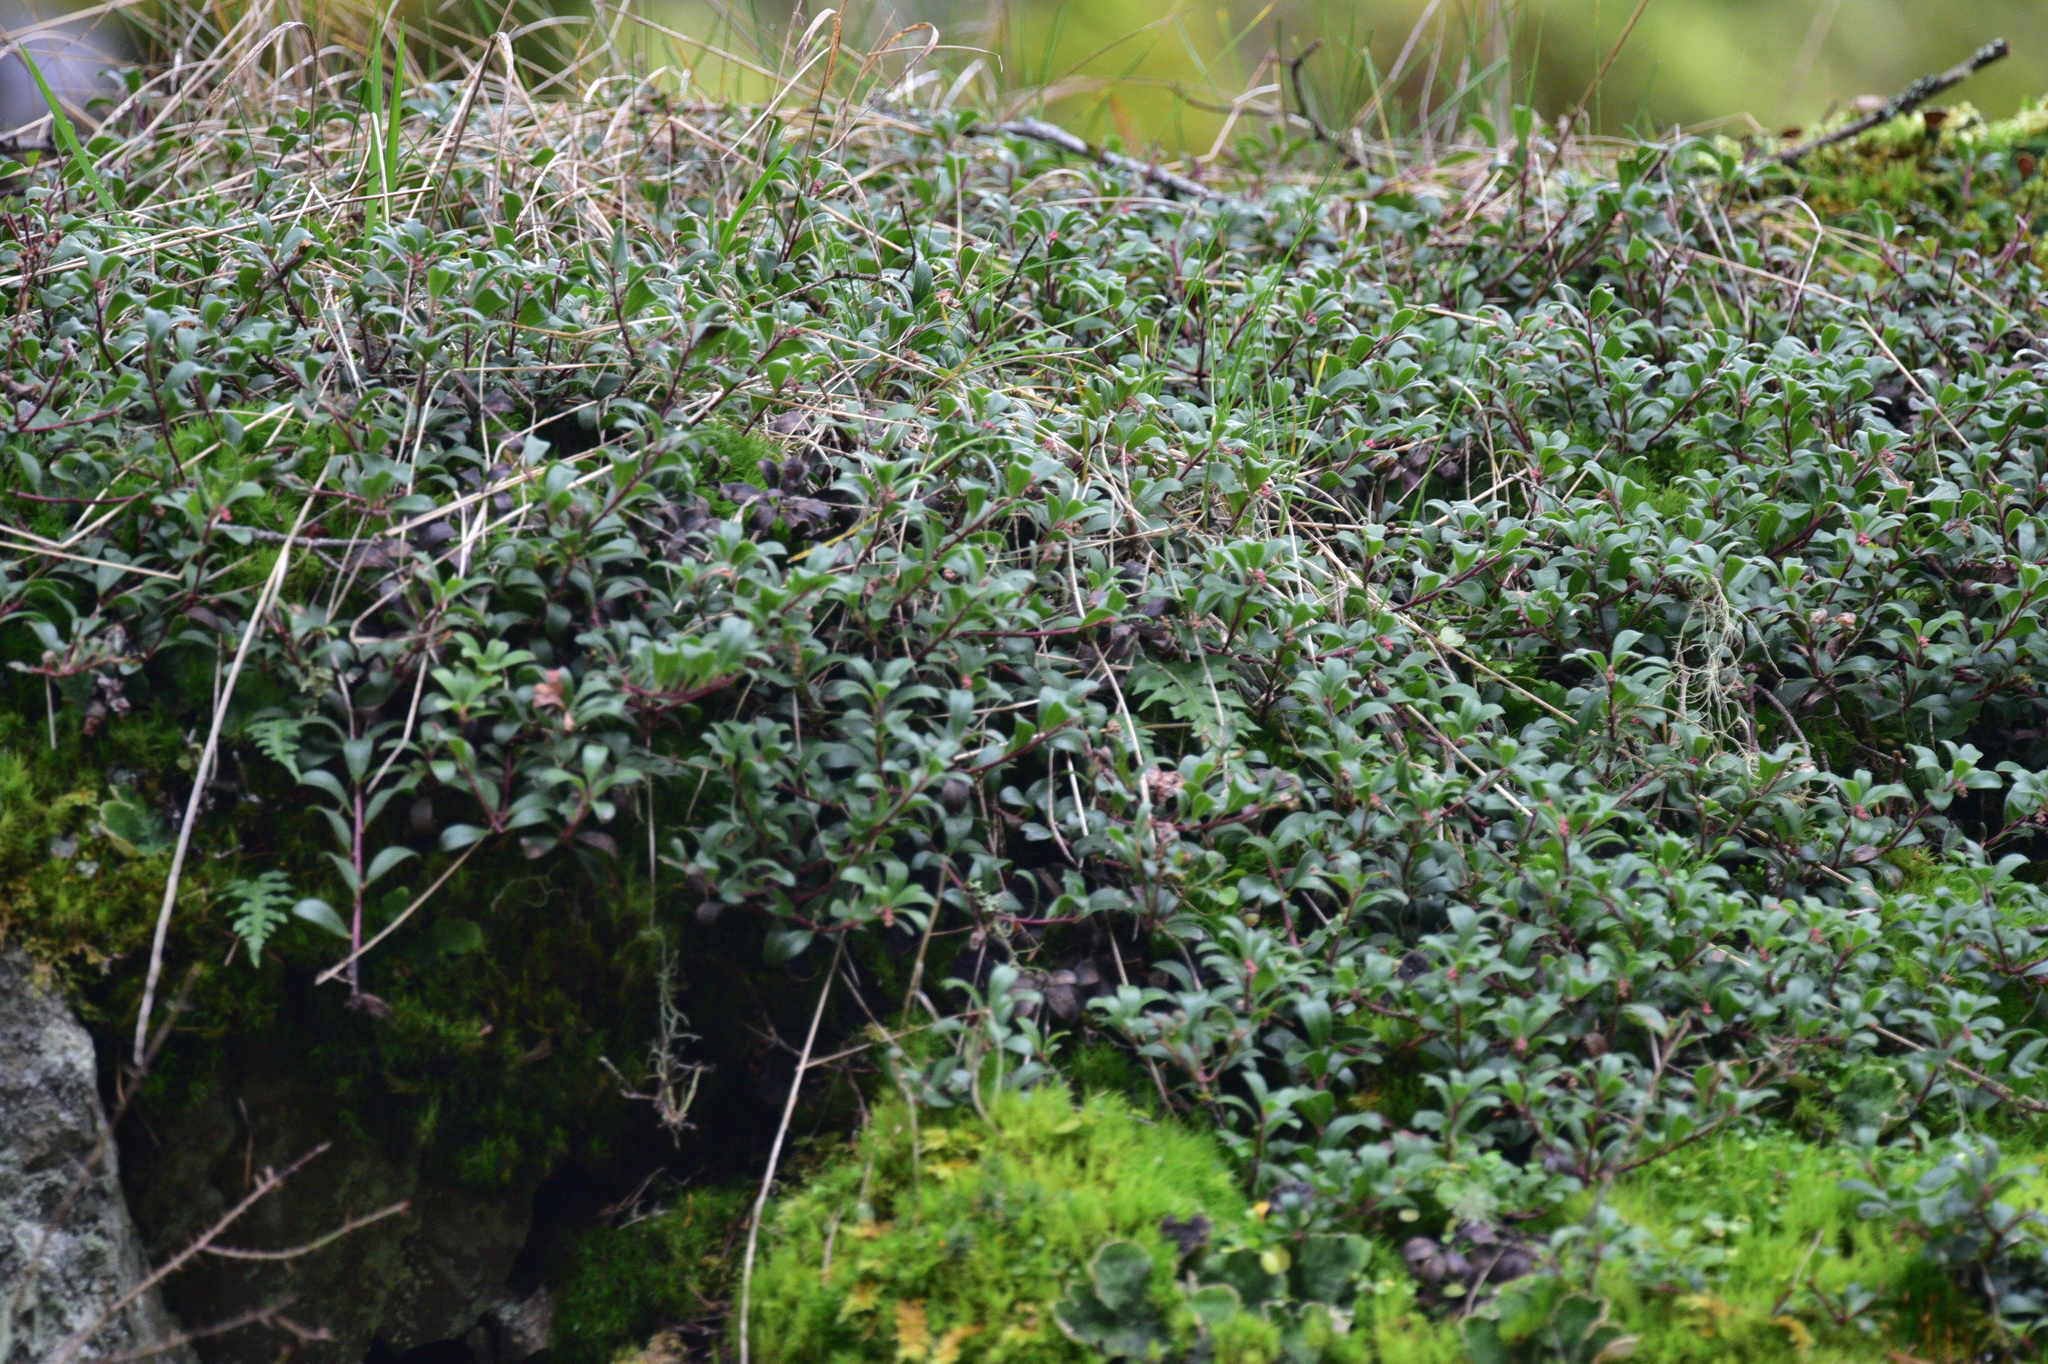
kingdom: Plantae
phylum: Tracheophyta
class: Magnoliopsida
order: Ericales
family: Ericaceae
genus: Arctostaphylos
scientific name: Arctostaphylos uva-ursi
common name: Bearberry
